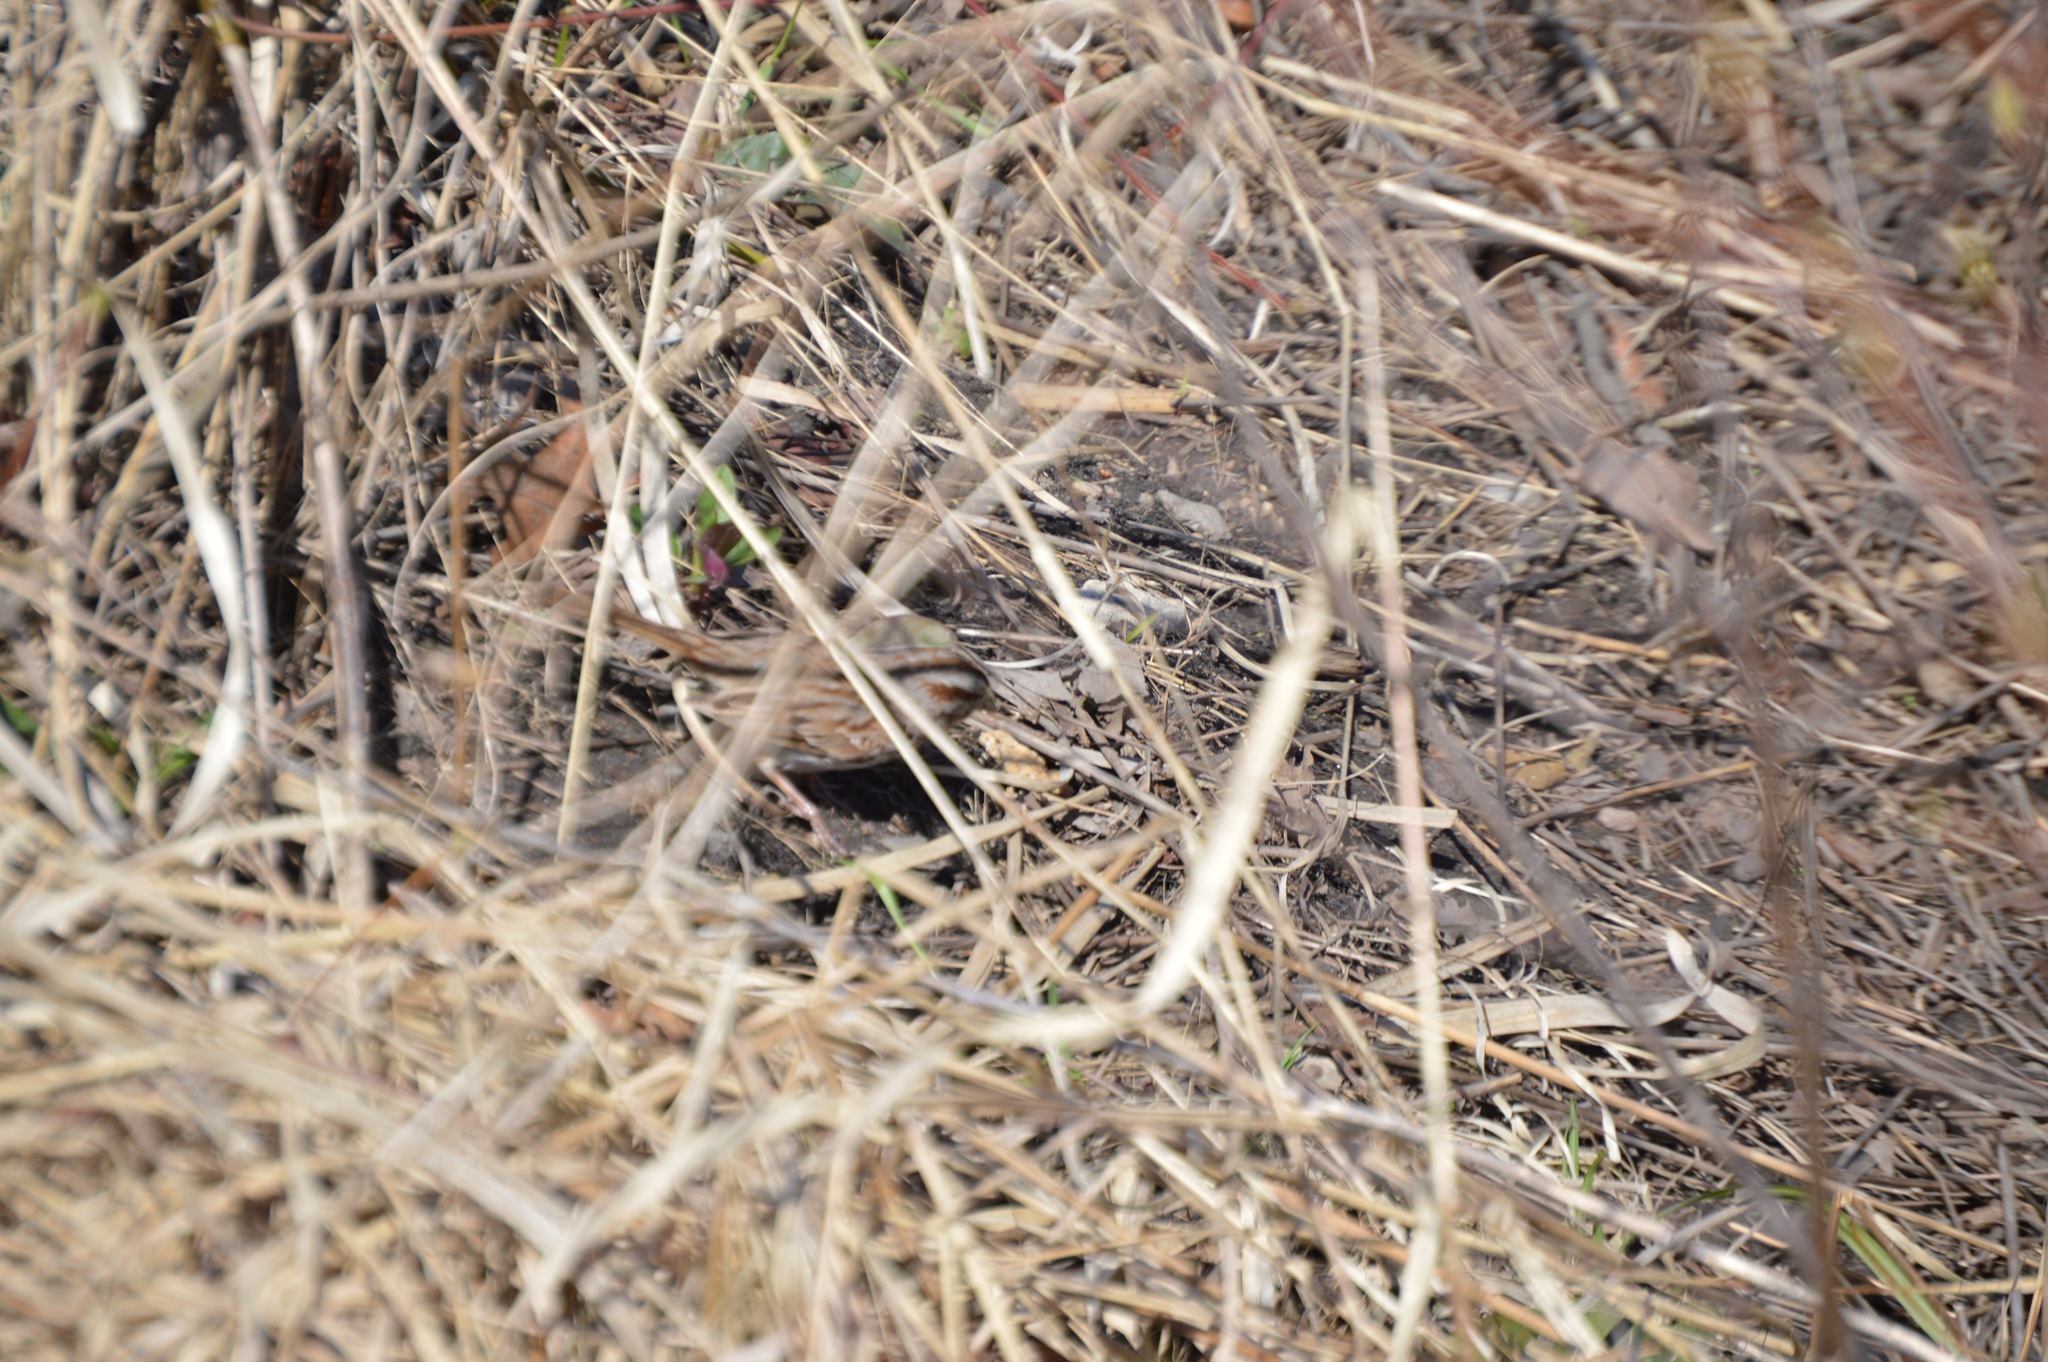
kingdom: Animalia
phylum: Chordata
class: Aves
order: Passeriformes
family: Passerellidae
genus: Melospiza
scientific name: Melospiza melodia
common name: Song sparrow
